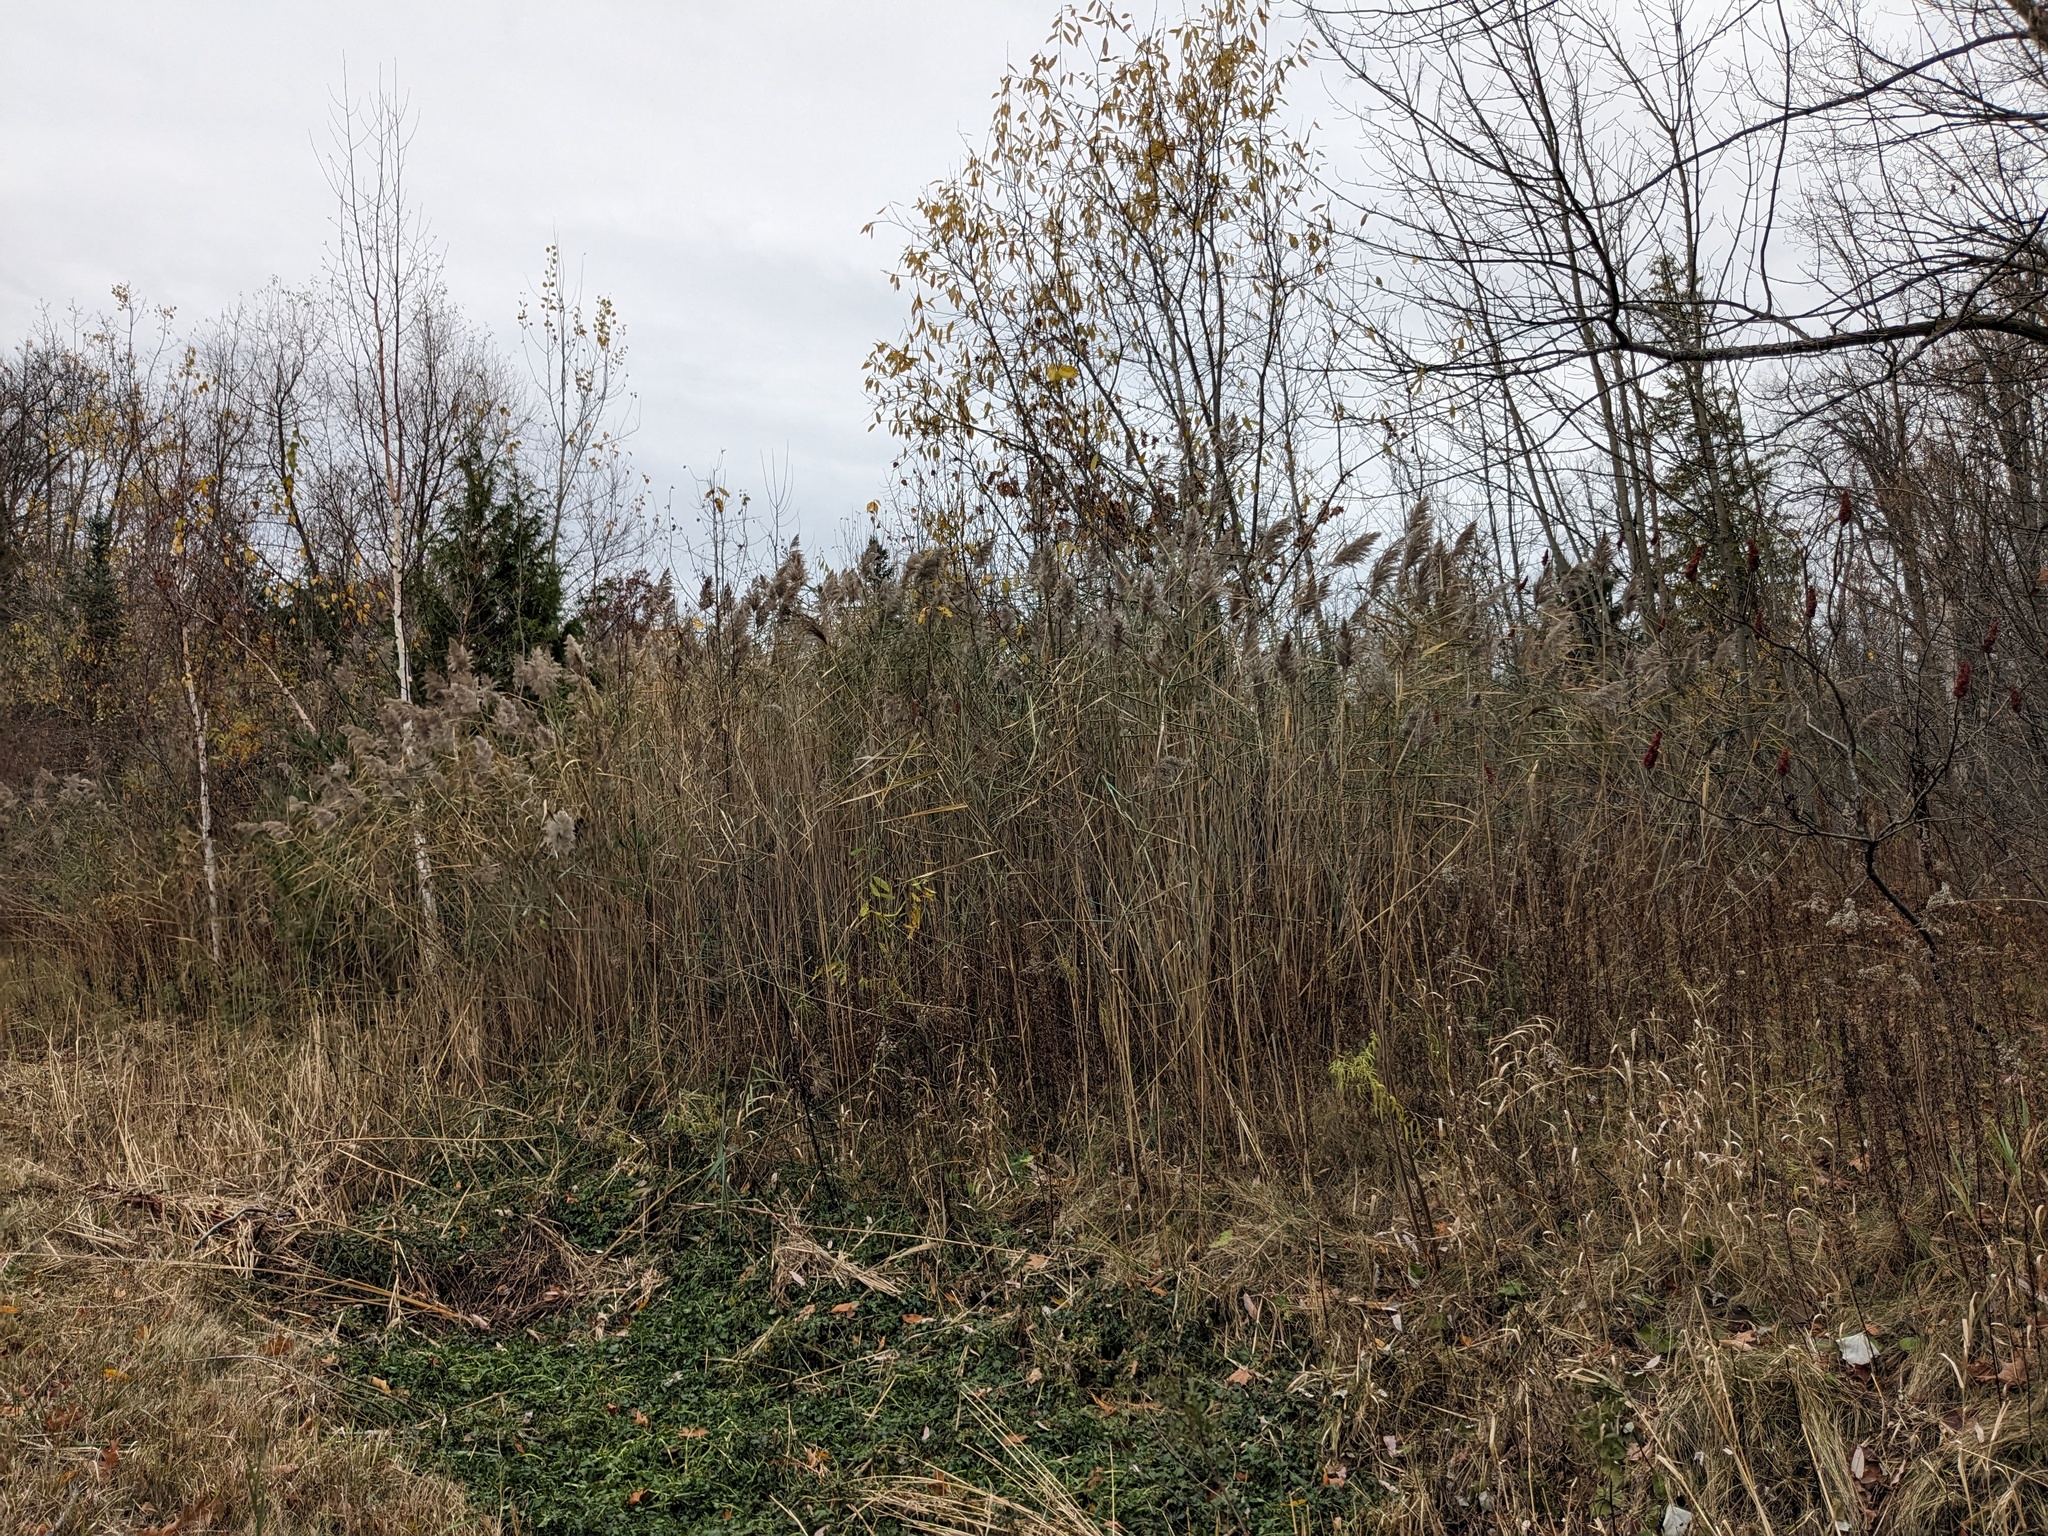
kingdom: Plantae
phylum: Tracheophyta
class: Liliopsida
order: Poales
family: Poaceae
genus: Phragmites
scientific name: Phragmites australis
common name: Common reed
